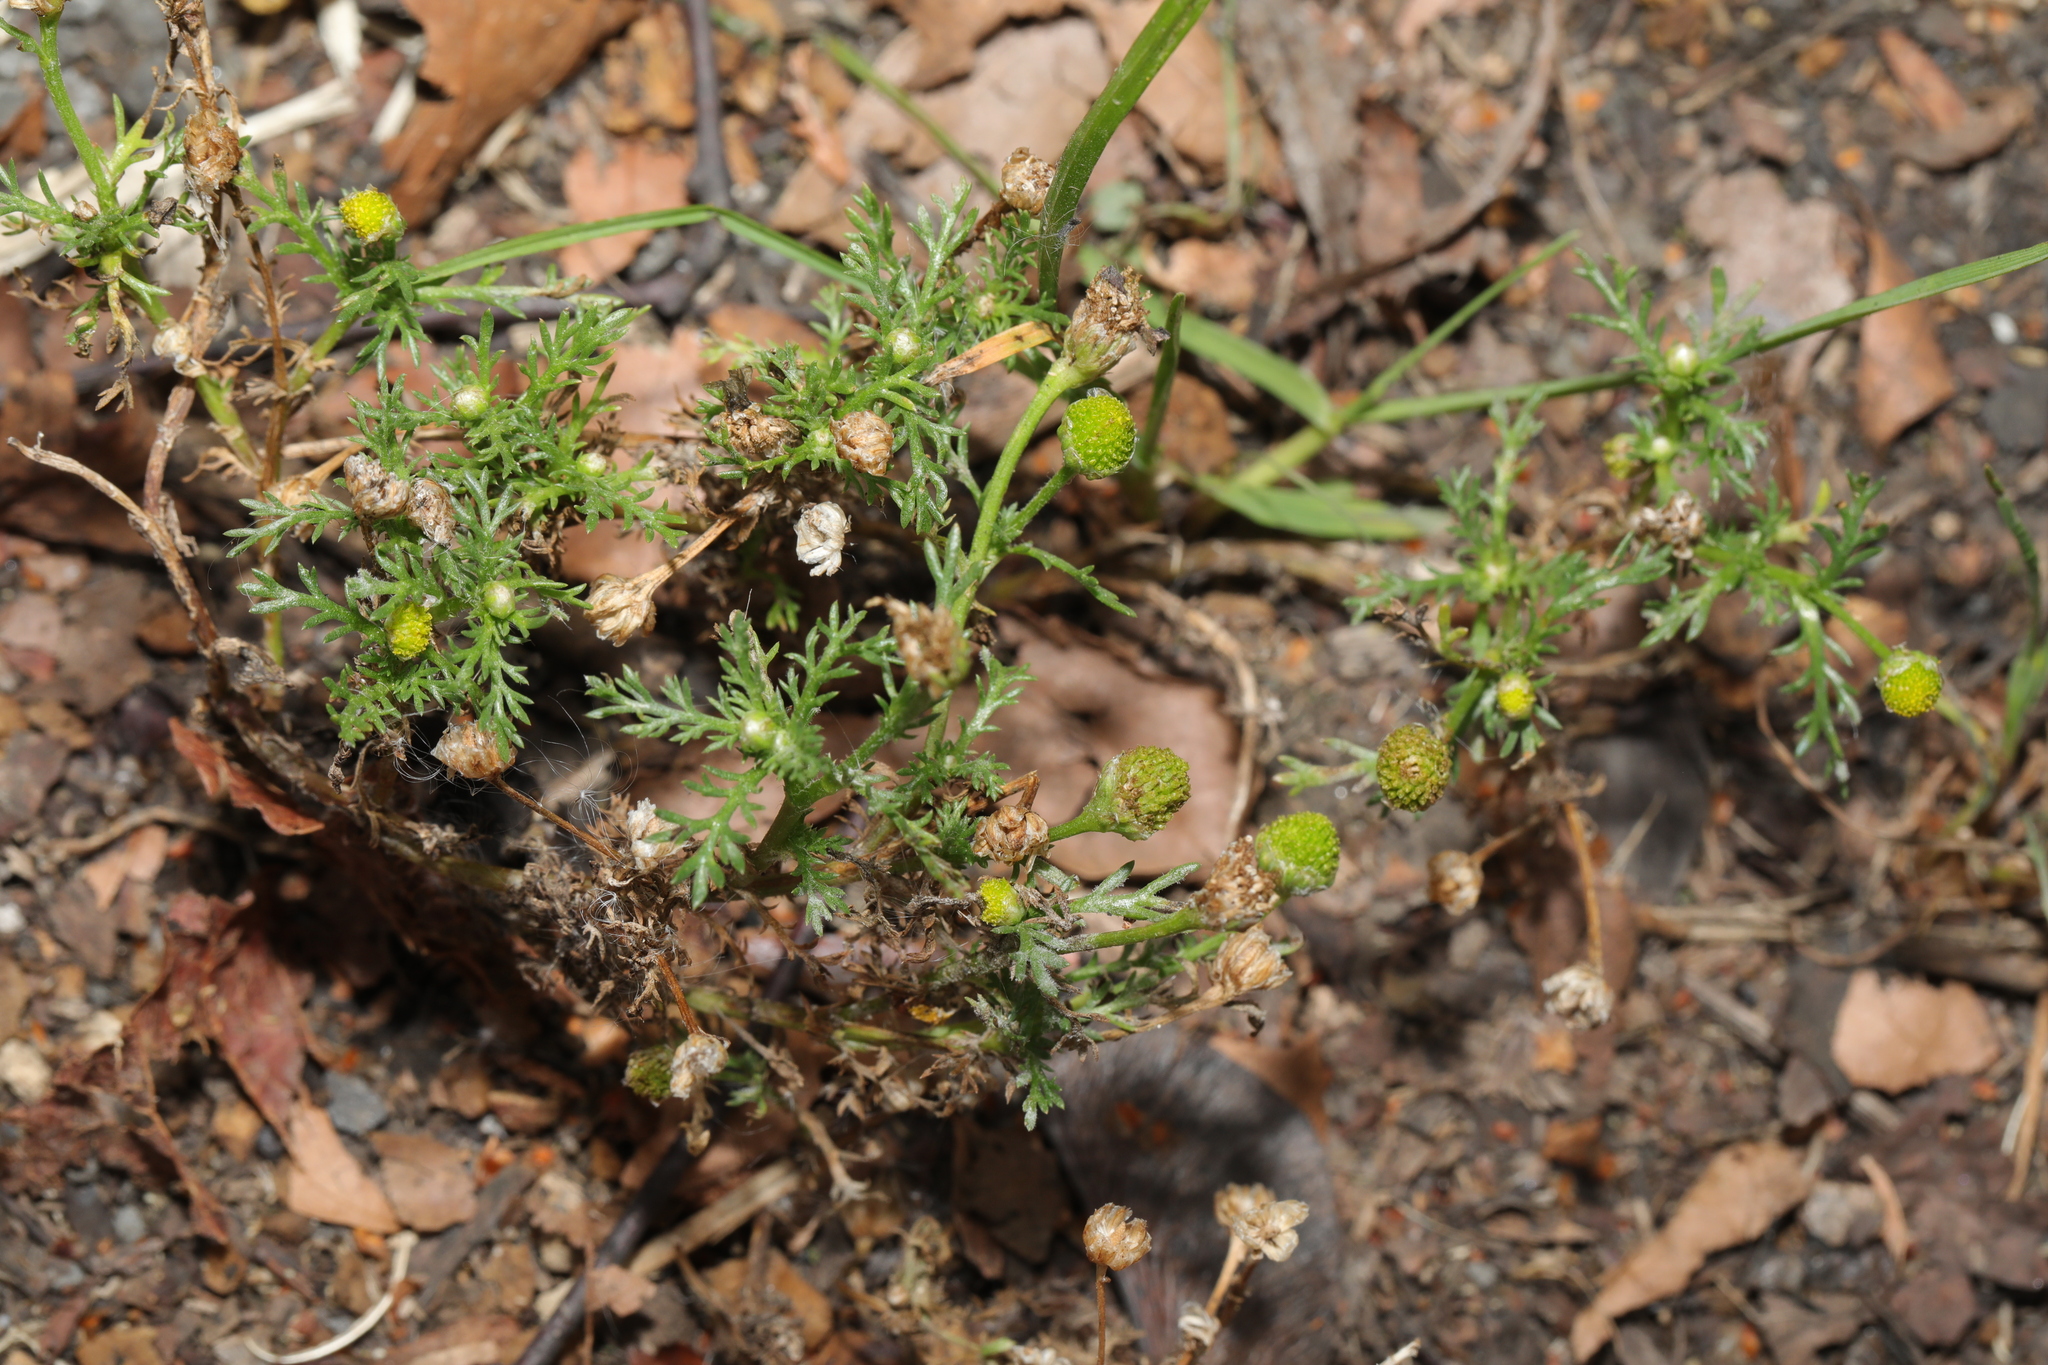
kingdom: Plantae
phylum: Tracheophyta
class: Magnoliopsida
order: Asterales
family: Asteraceae
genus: Matricaria
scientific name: Matricaria discoidea
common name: Disc mayweed
